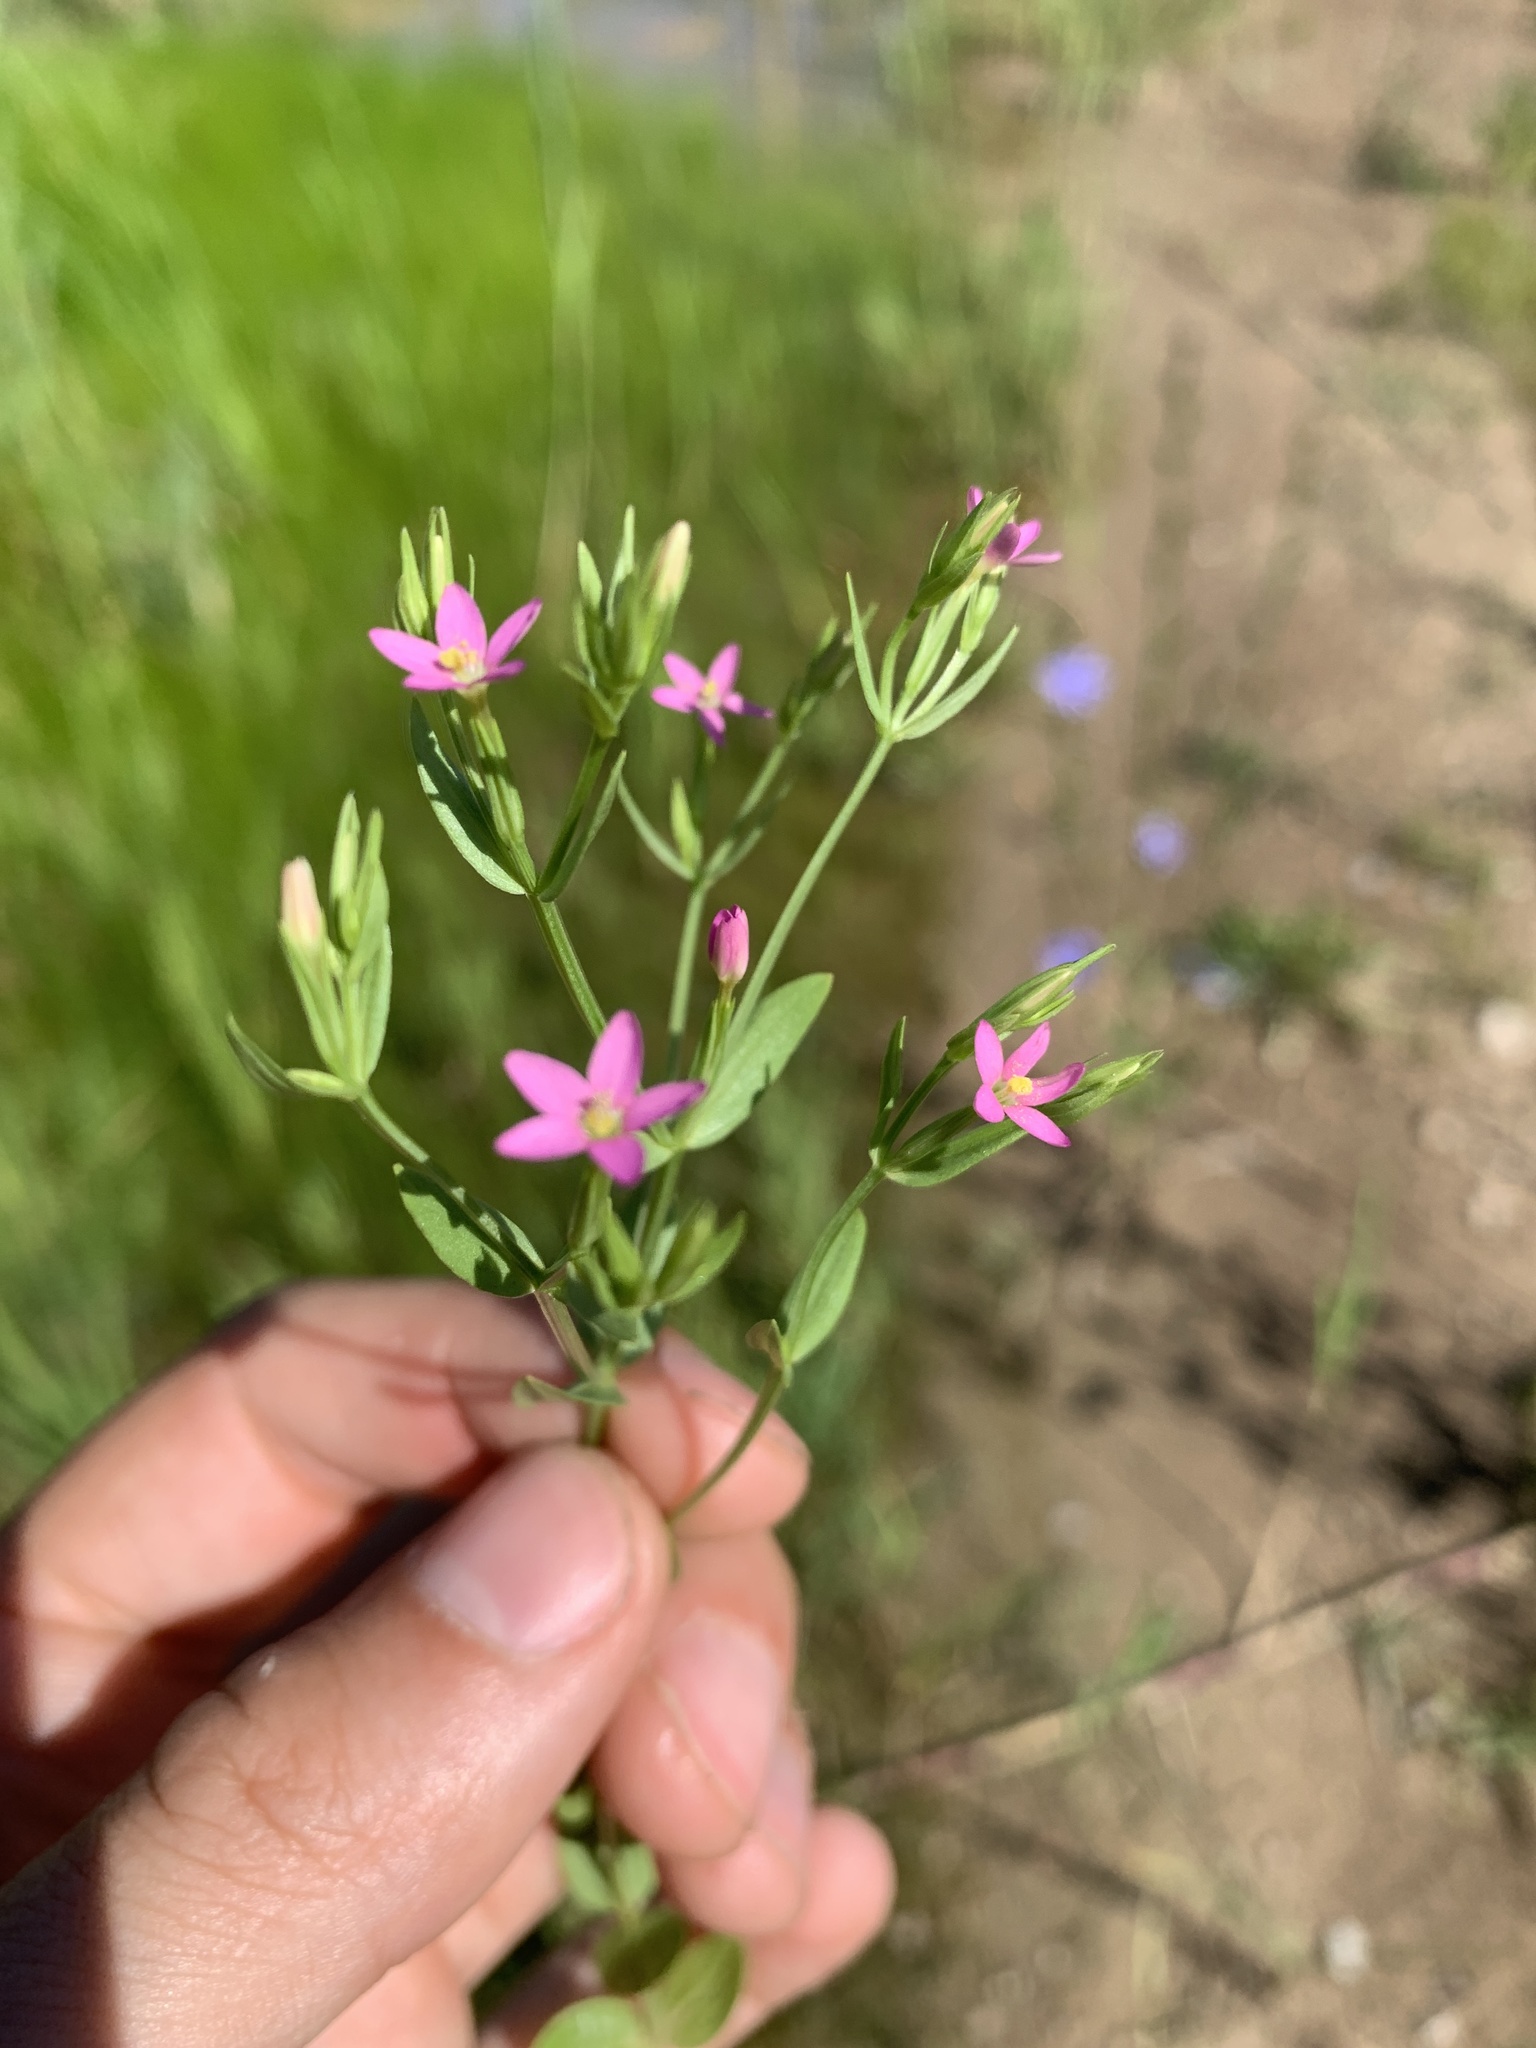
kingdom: Plantae
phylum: Tracheophyta
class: Magnoliopsida
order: Gentianales
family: Gentianaceae
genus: Centaurium
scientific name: Centaurium pulchellum
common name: Lesser centaury
